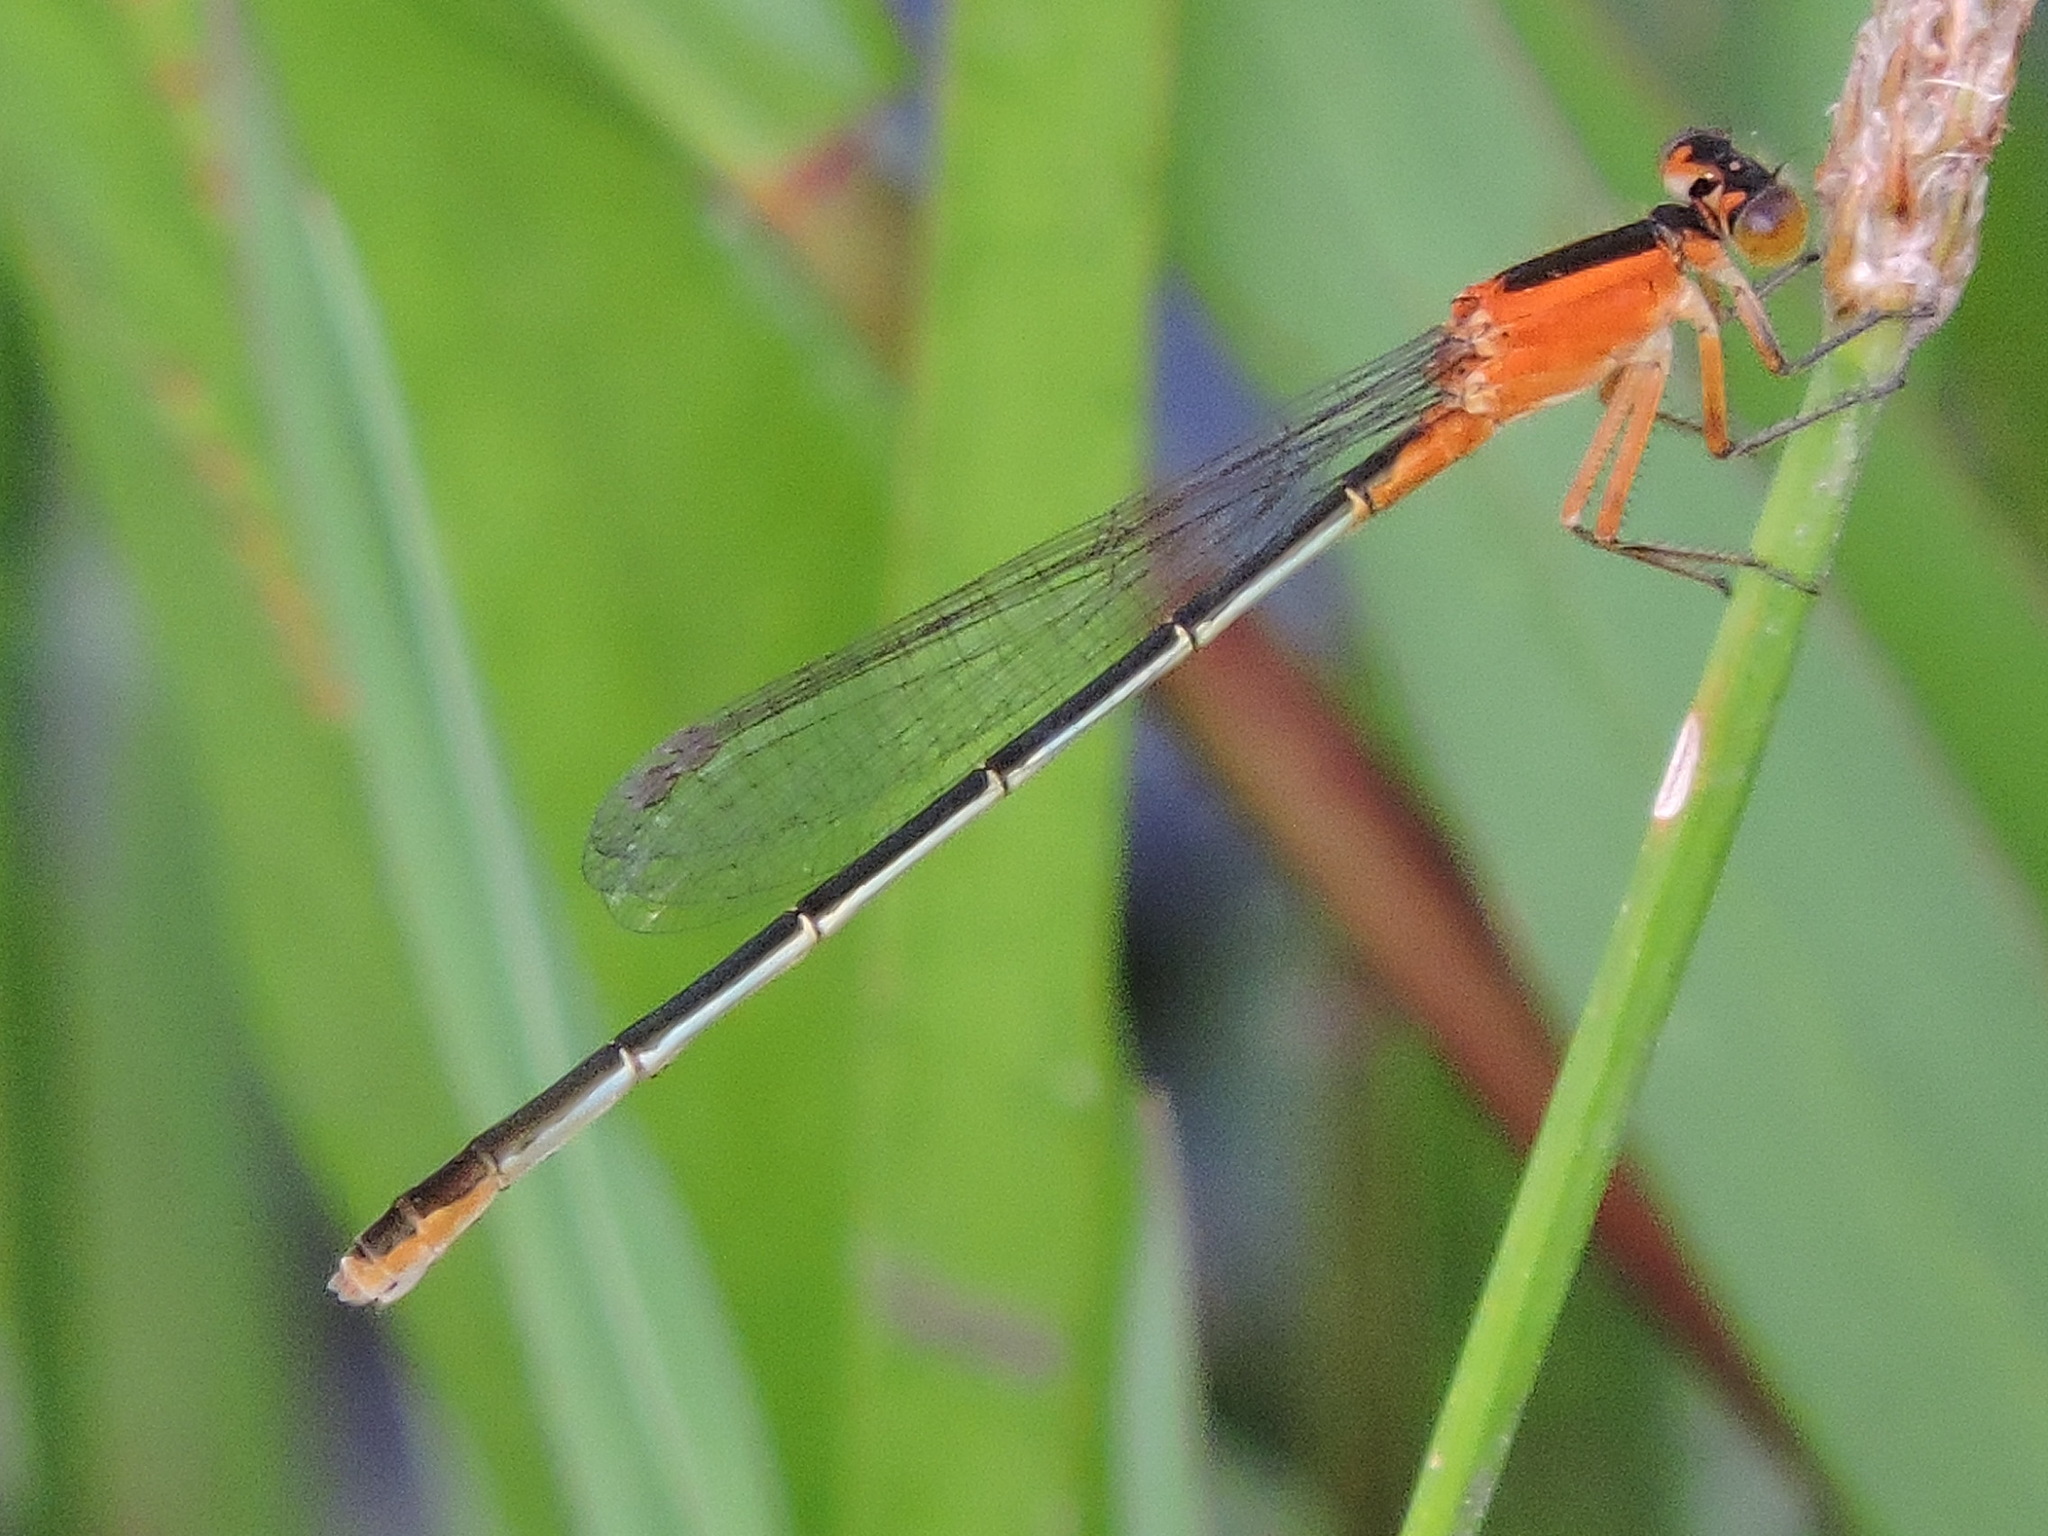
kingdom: Animalia
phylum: Arthropoda
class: Insecta
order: Odonata
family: Coenagrionidae
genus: Ischnura
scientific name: Ischnura ramburii
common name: Rambur's forktail
